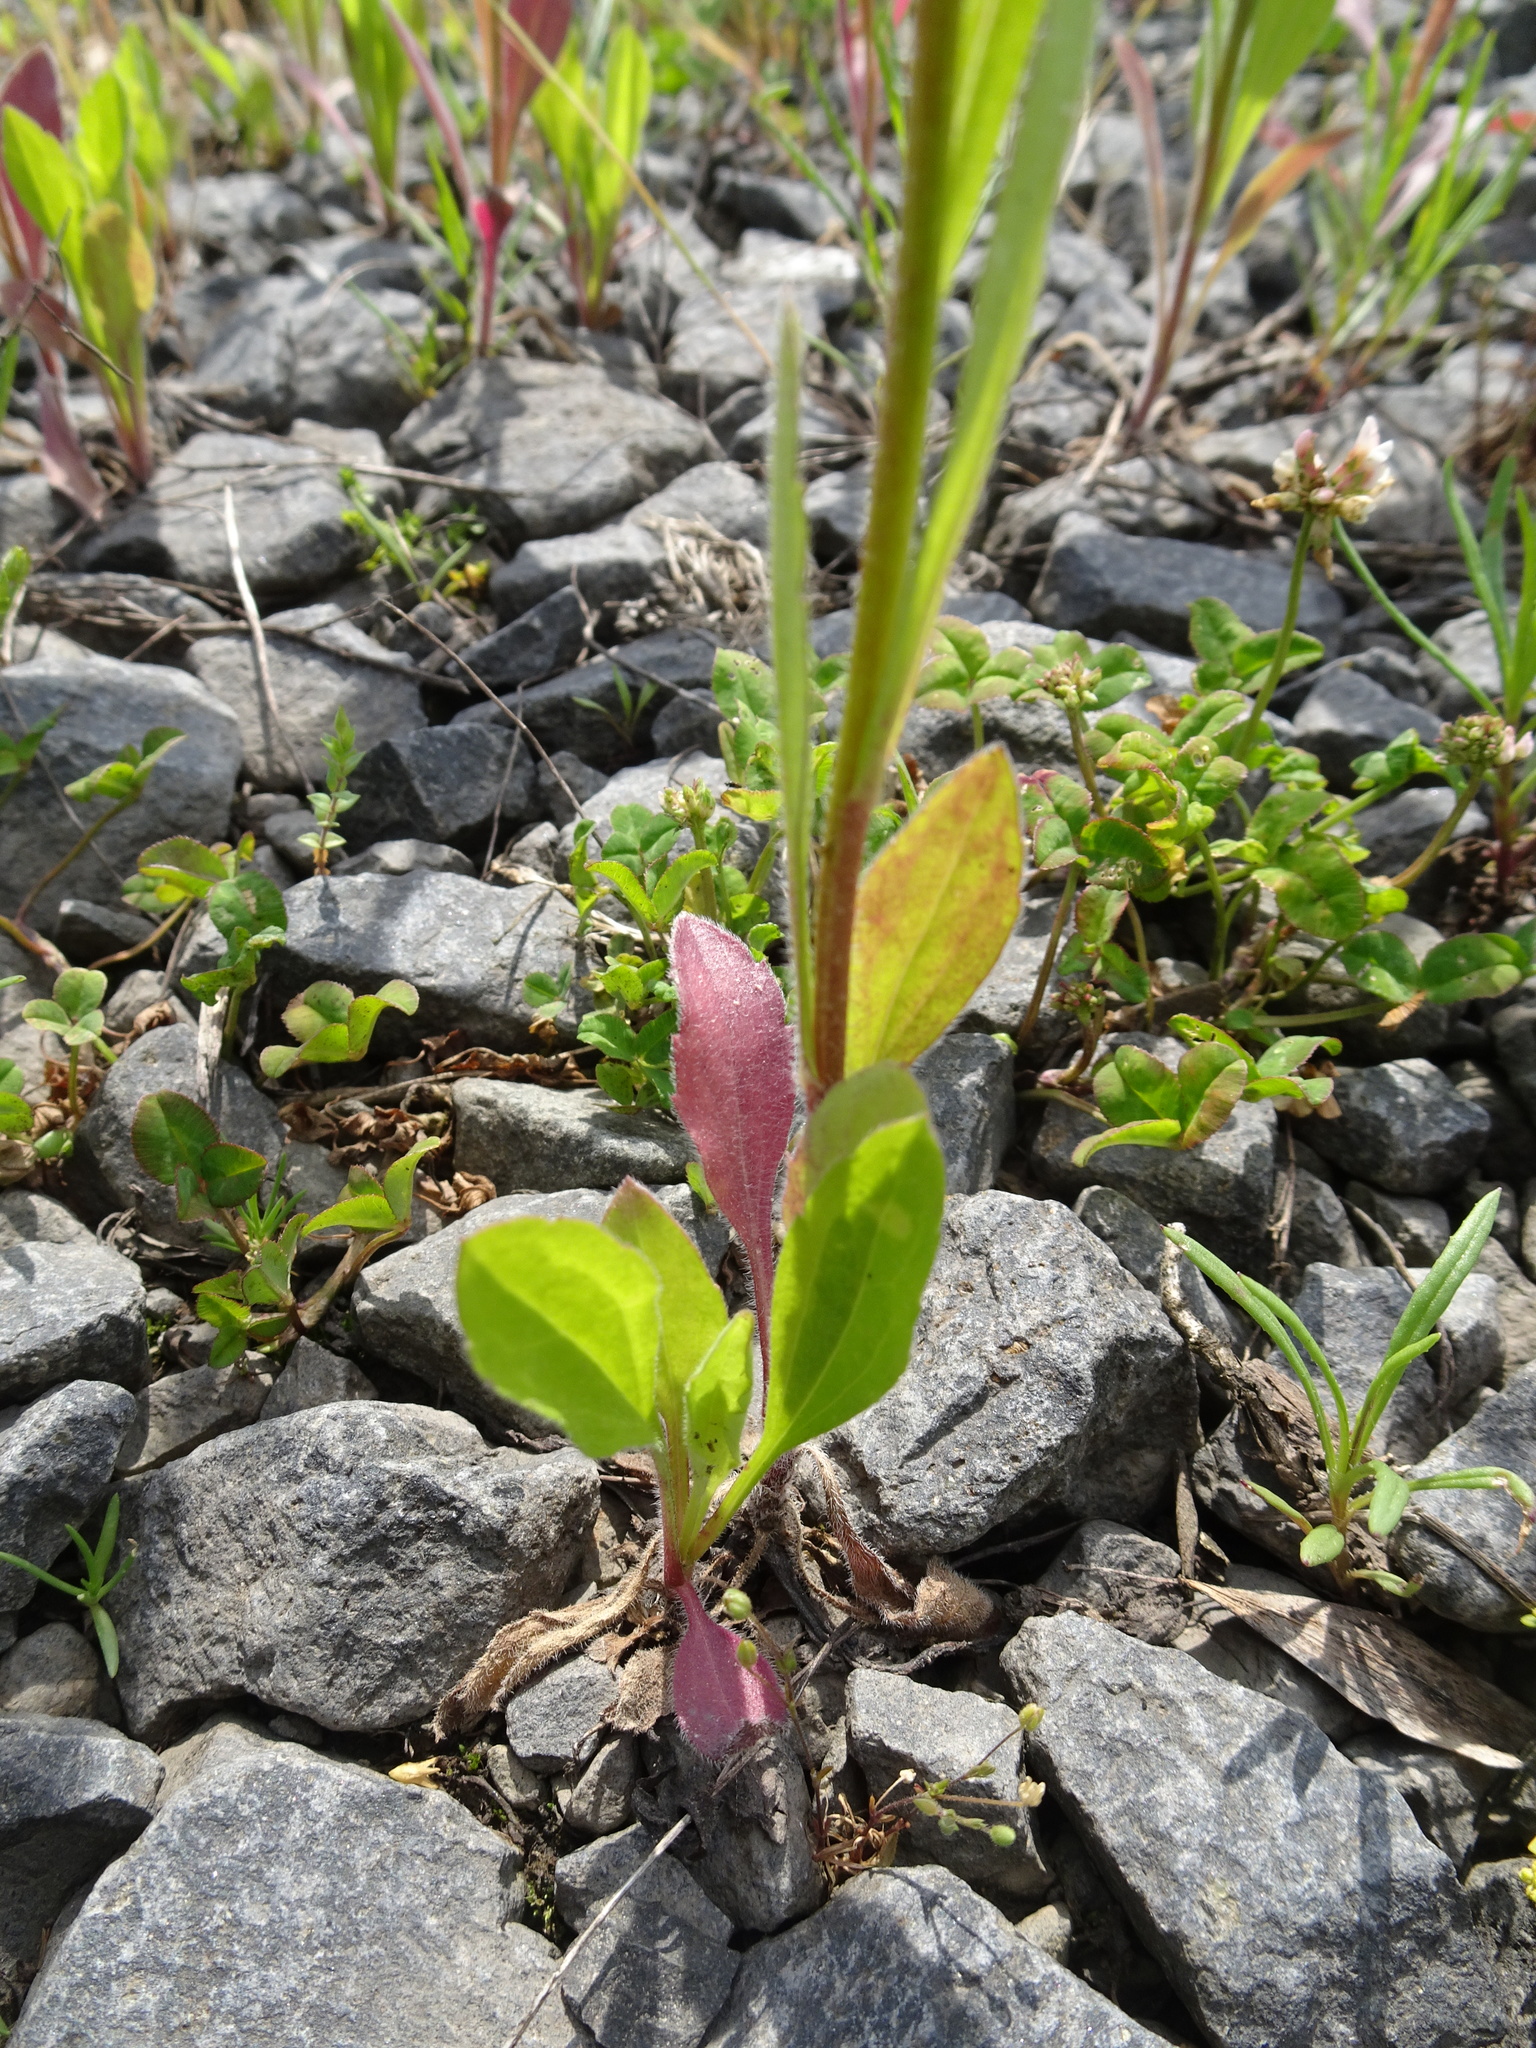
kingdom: Plantae
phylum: Tracheophyta
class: Magnoliopsida
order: Asterales
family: Asteraceae
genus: Erigeron
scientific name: Erigeron annuus
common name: Tall fleabane
